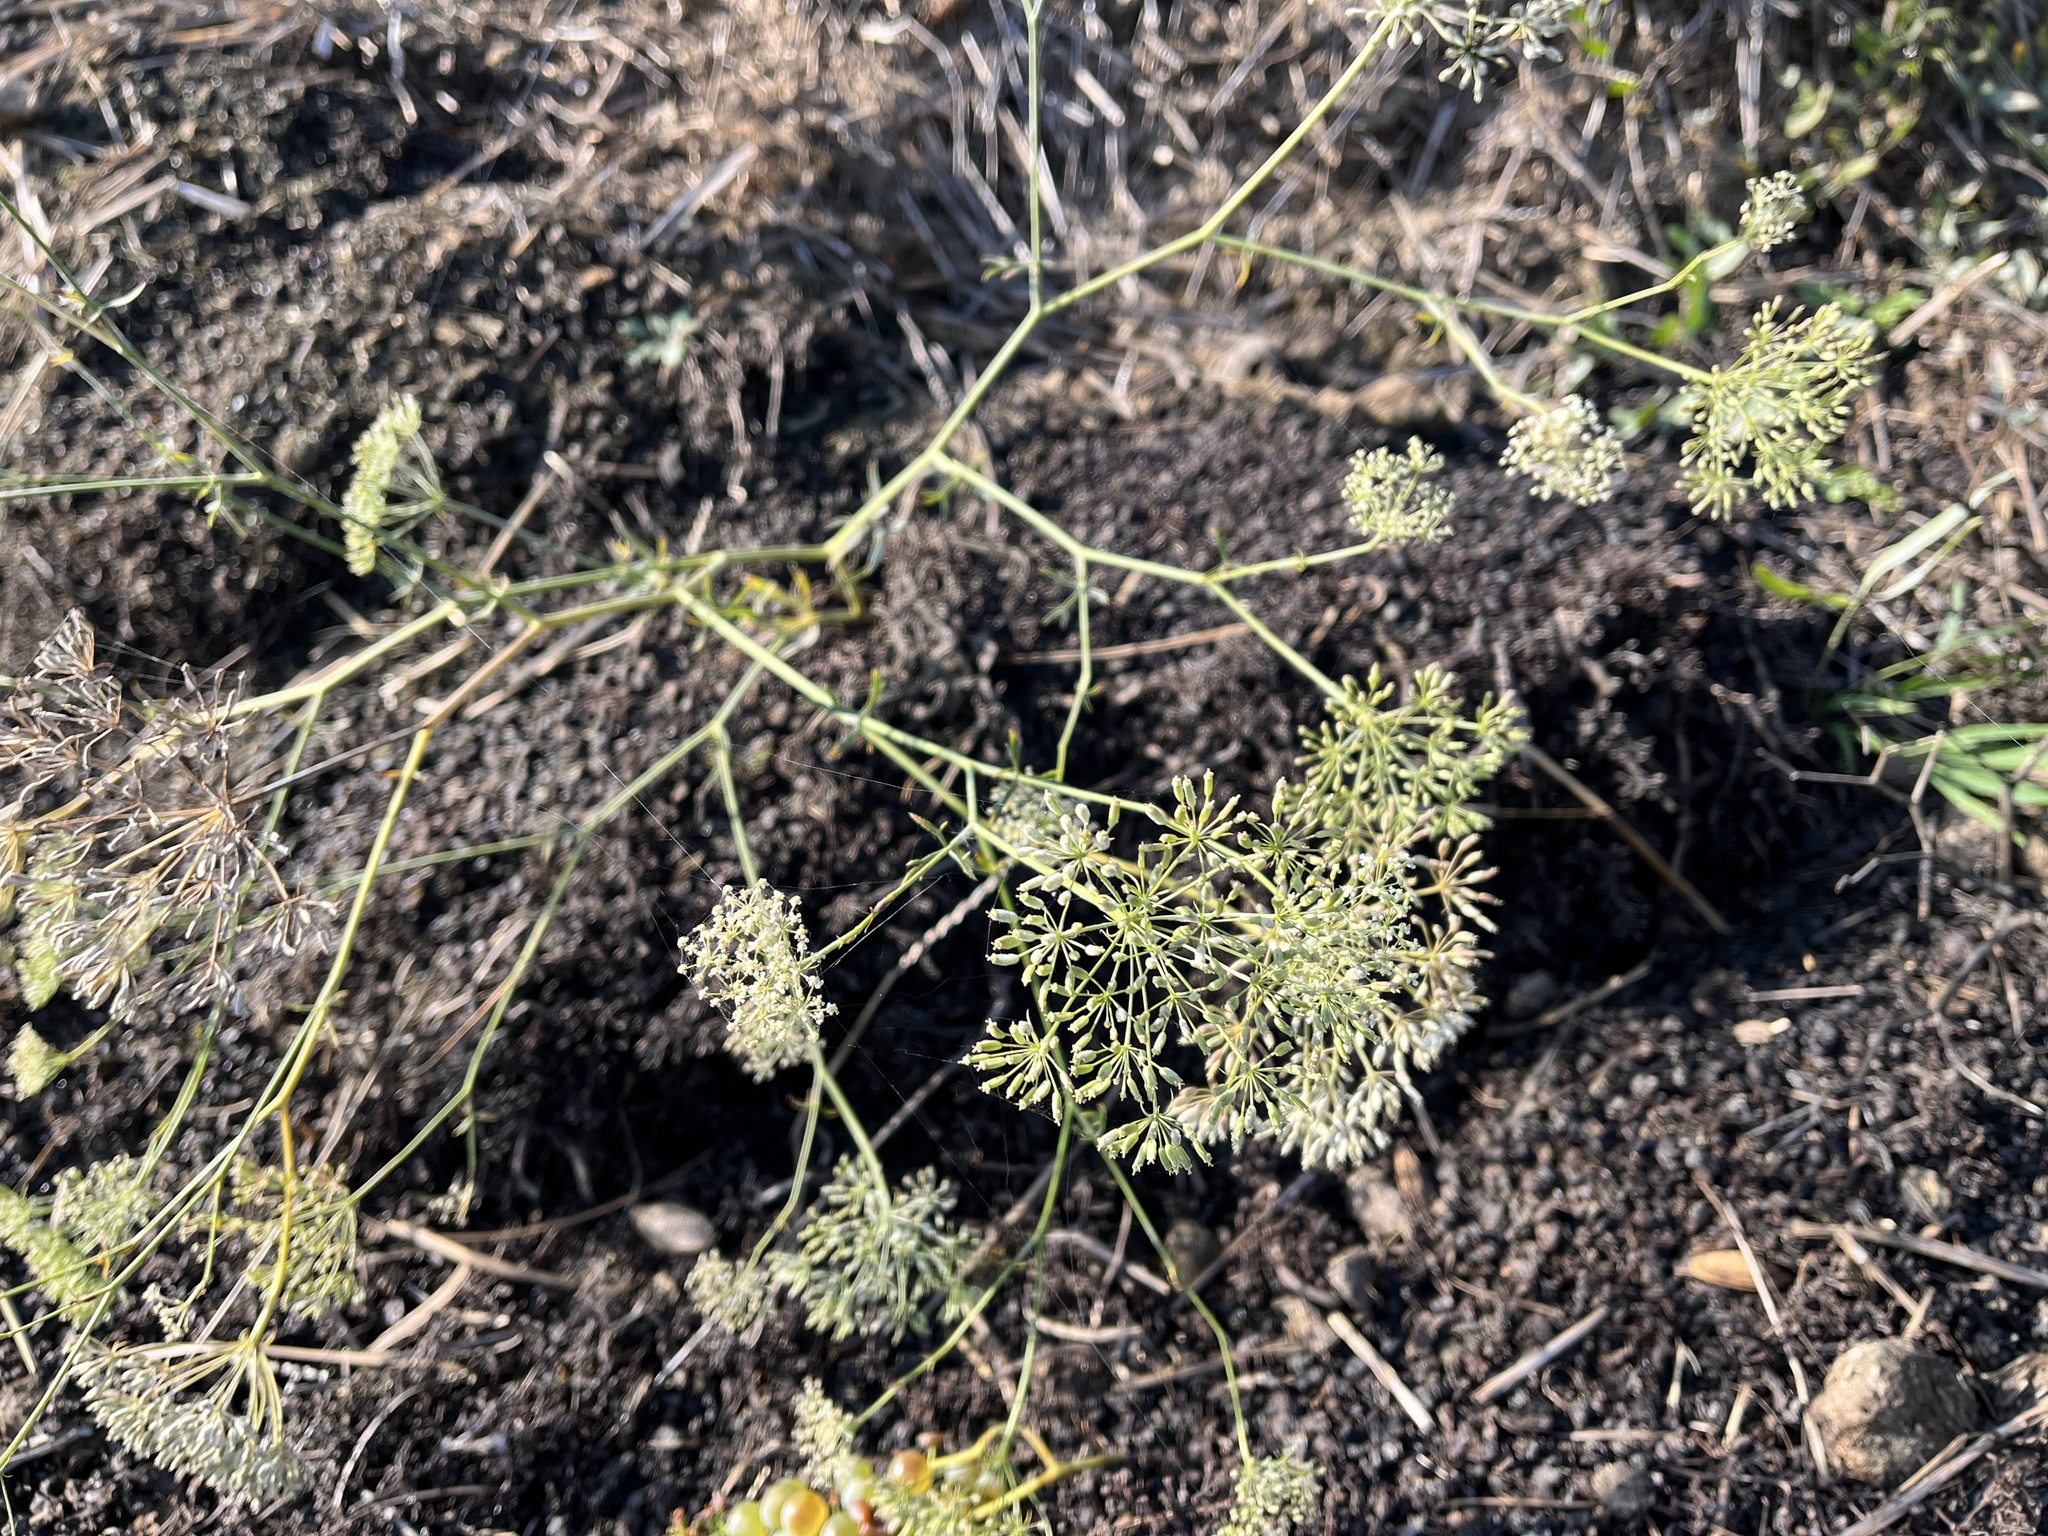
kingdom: Plantae
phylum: Tracheophyta
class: Magnoliopsida
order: Apiales
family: Apiaceae
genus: Falcaria
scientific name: Falcaria vulgaris
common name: Longleaf
